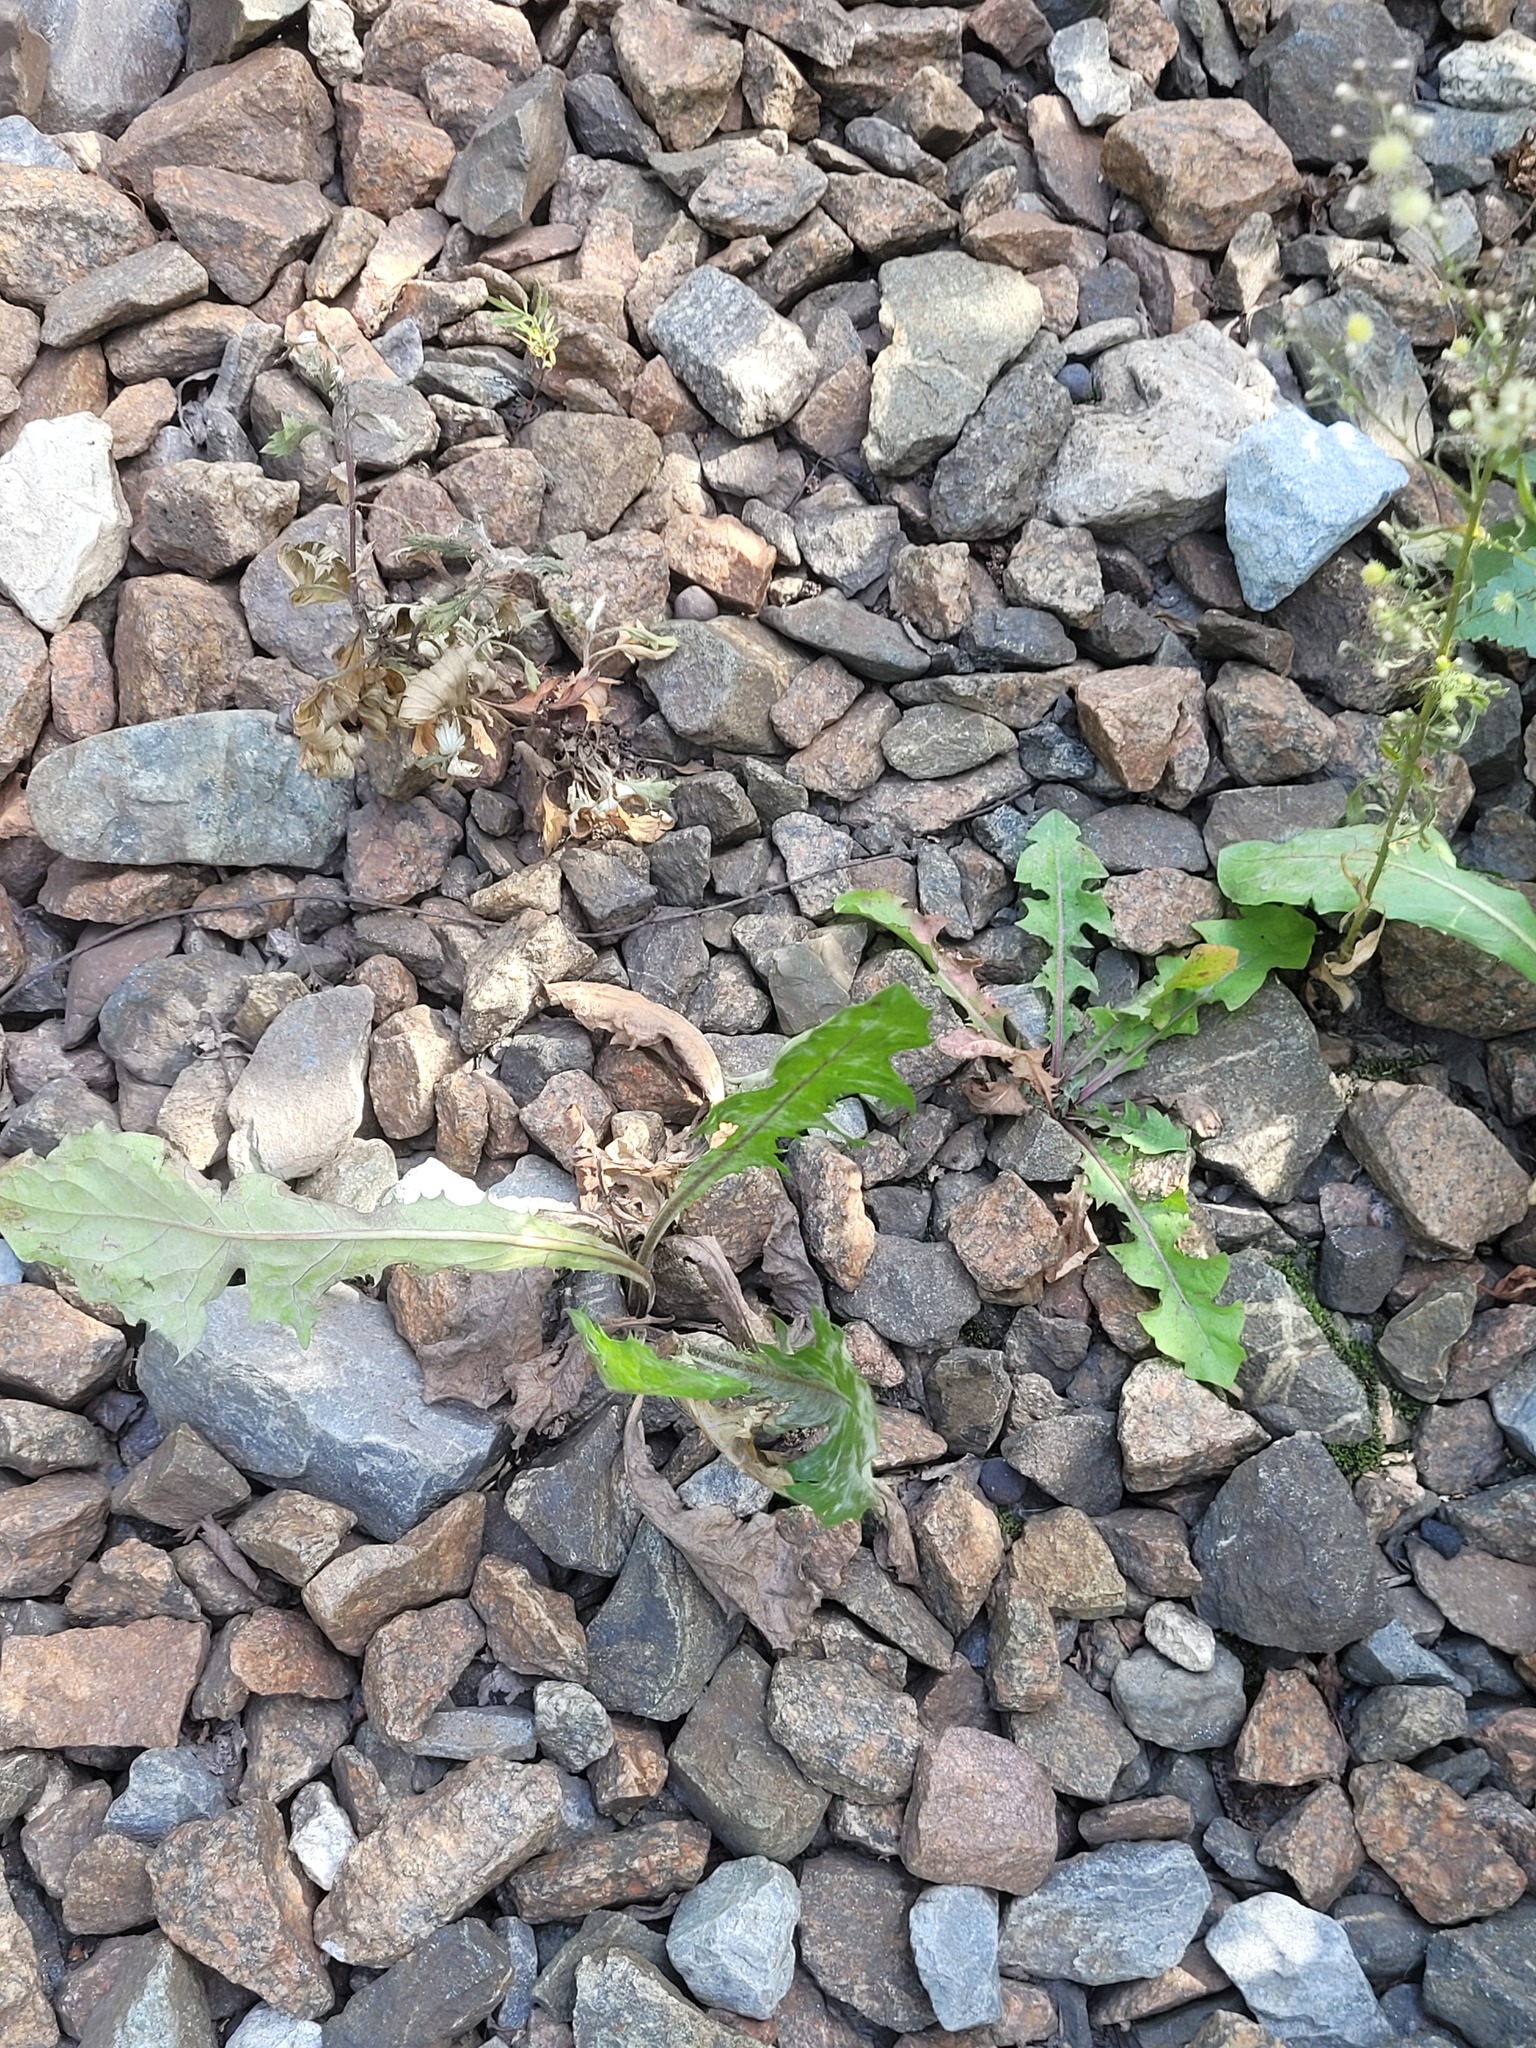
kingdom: Plantae
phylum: Tracheophyta
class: Magnoliopsida
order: Asterales
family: Asteraceae
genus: Taraxacum
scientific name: Taraxacum officinale
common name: Common dandelion
